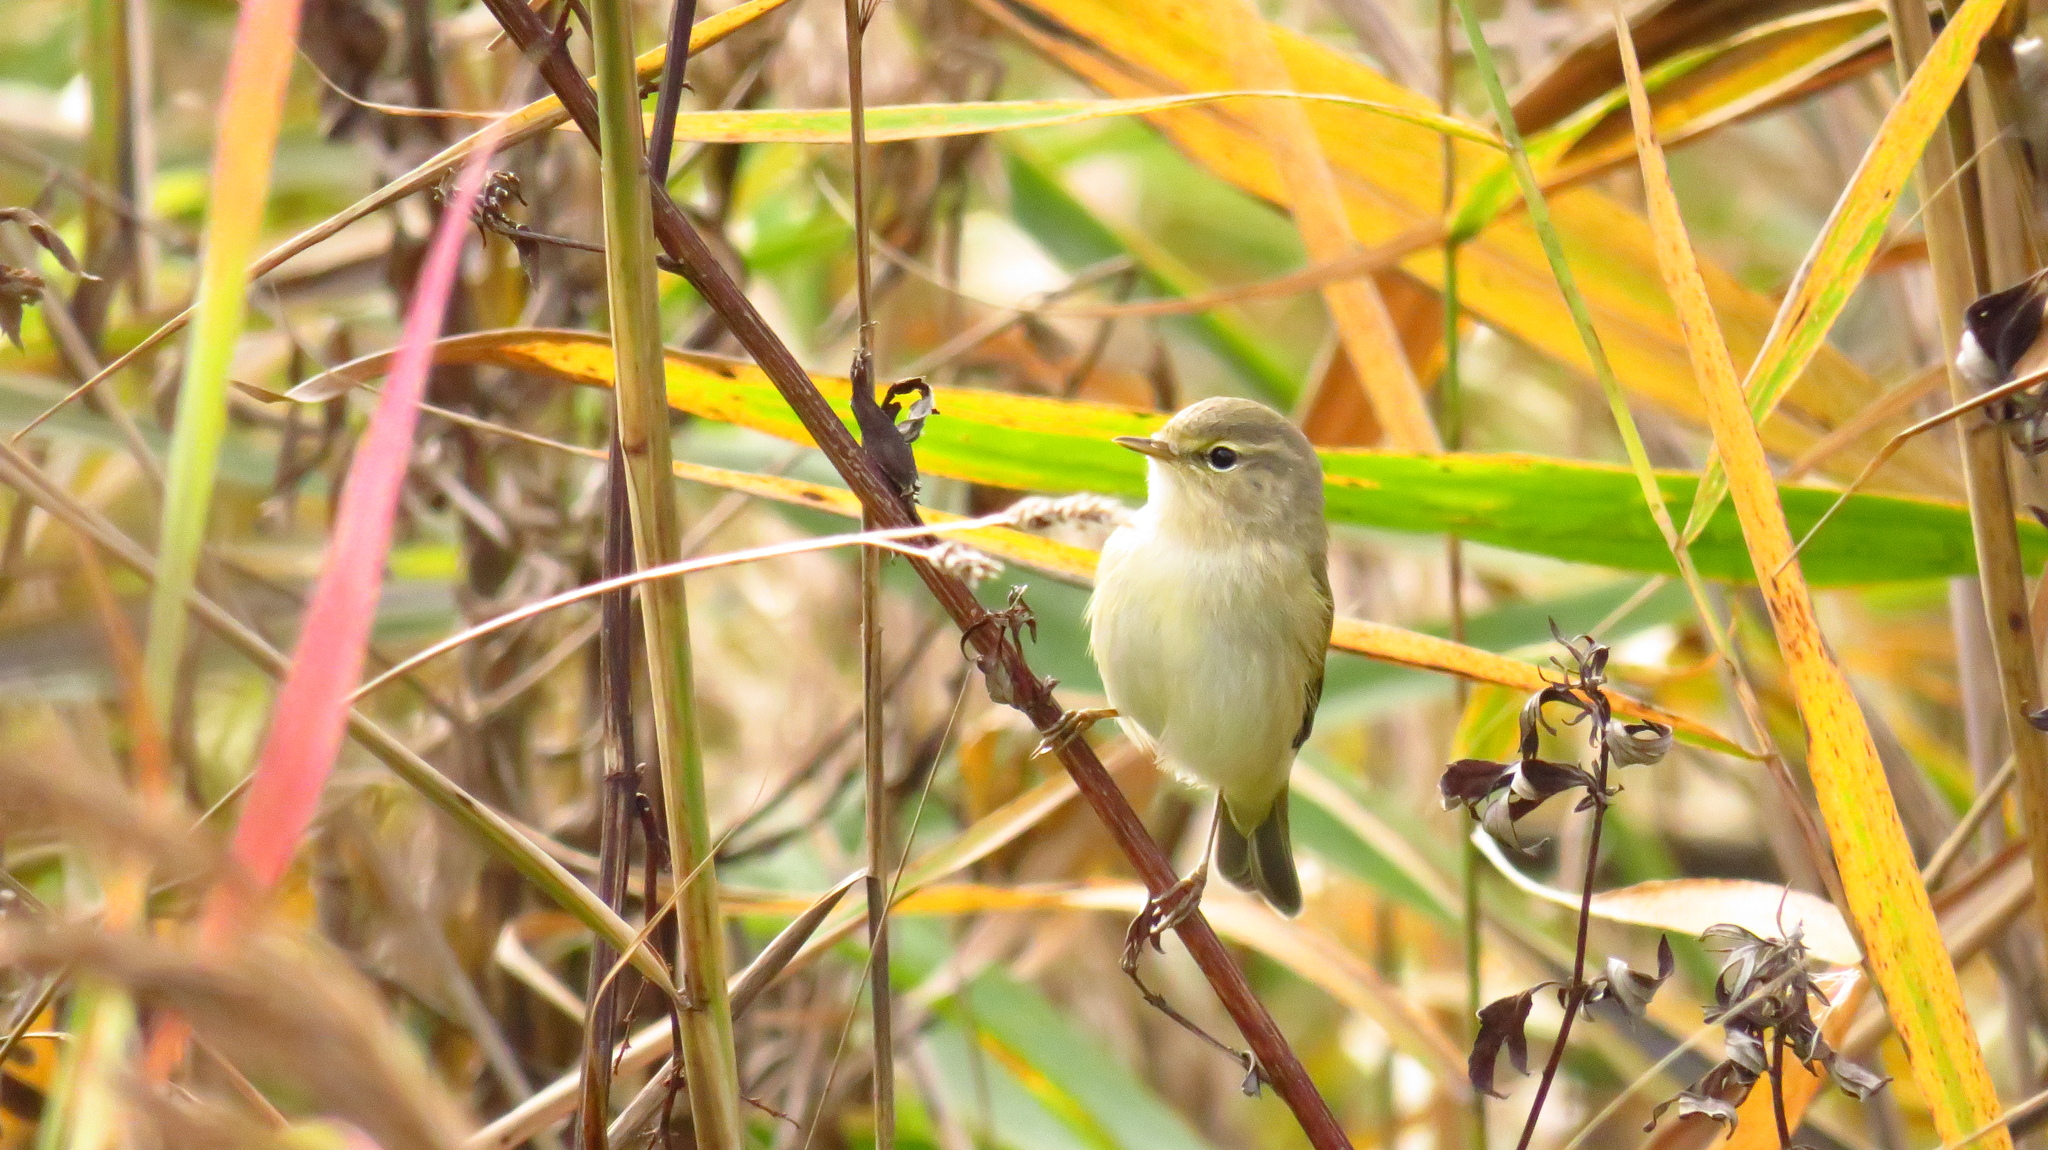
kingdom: Animalia
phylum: Chordata
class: Aves
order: Passeriformes
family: Phylloscopidae
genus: Phylloscopus
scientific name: Phylloscopus trochilus
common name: Willow warbler
